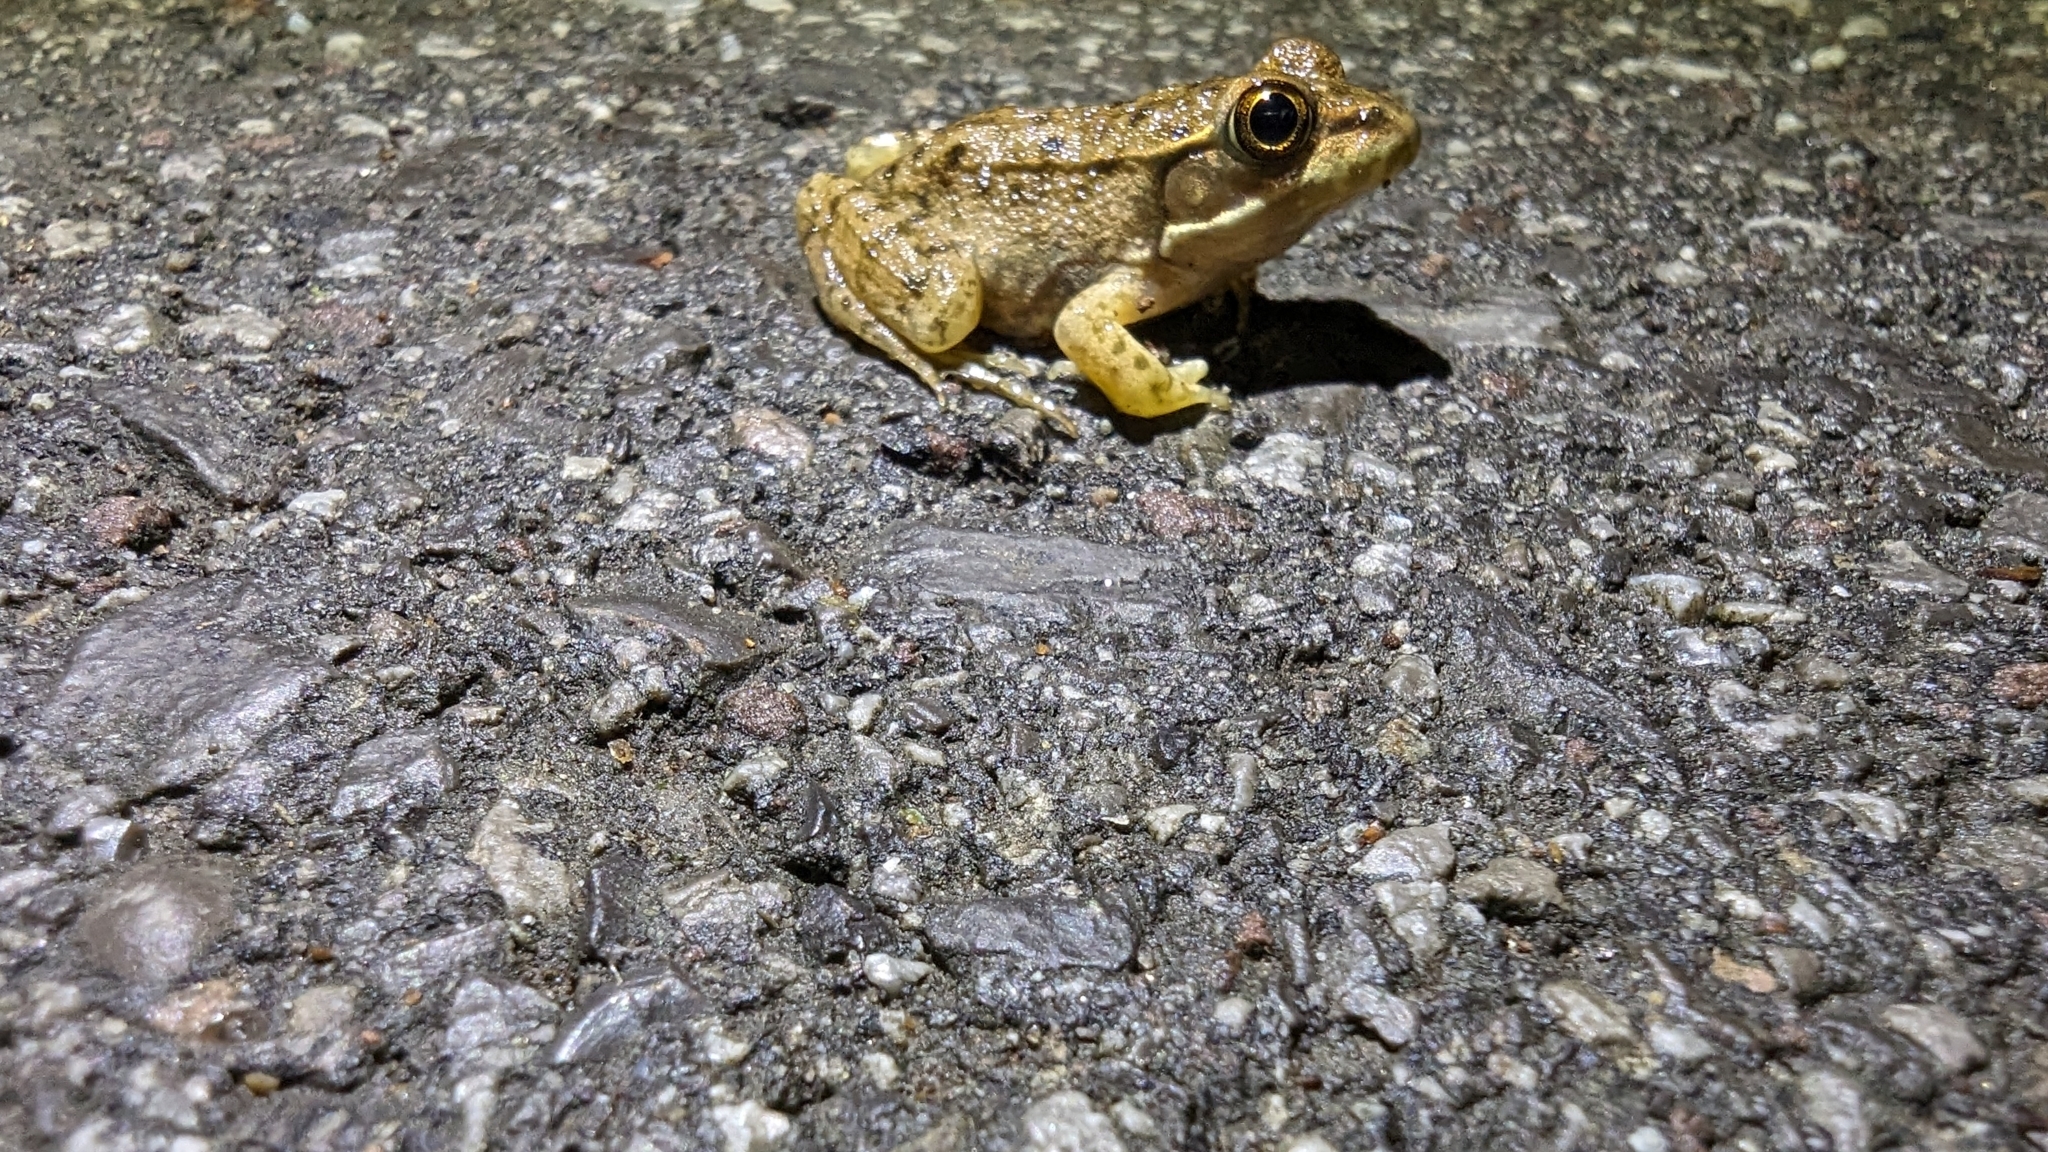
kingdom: Animalia
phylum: Chordata
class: Amphibia
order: Anura
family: Ranidae
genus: Lithobates
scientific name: Lithobates clamitans
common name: Green frog
